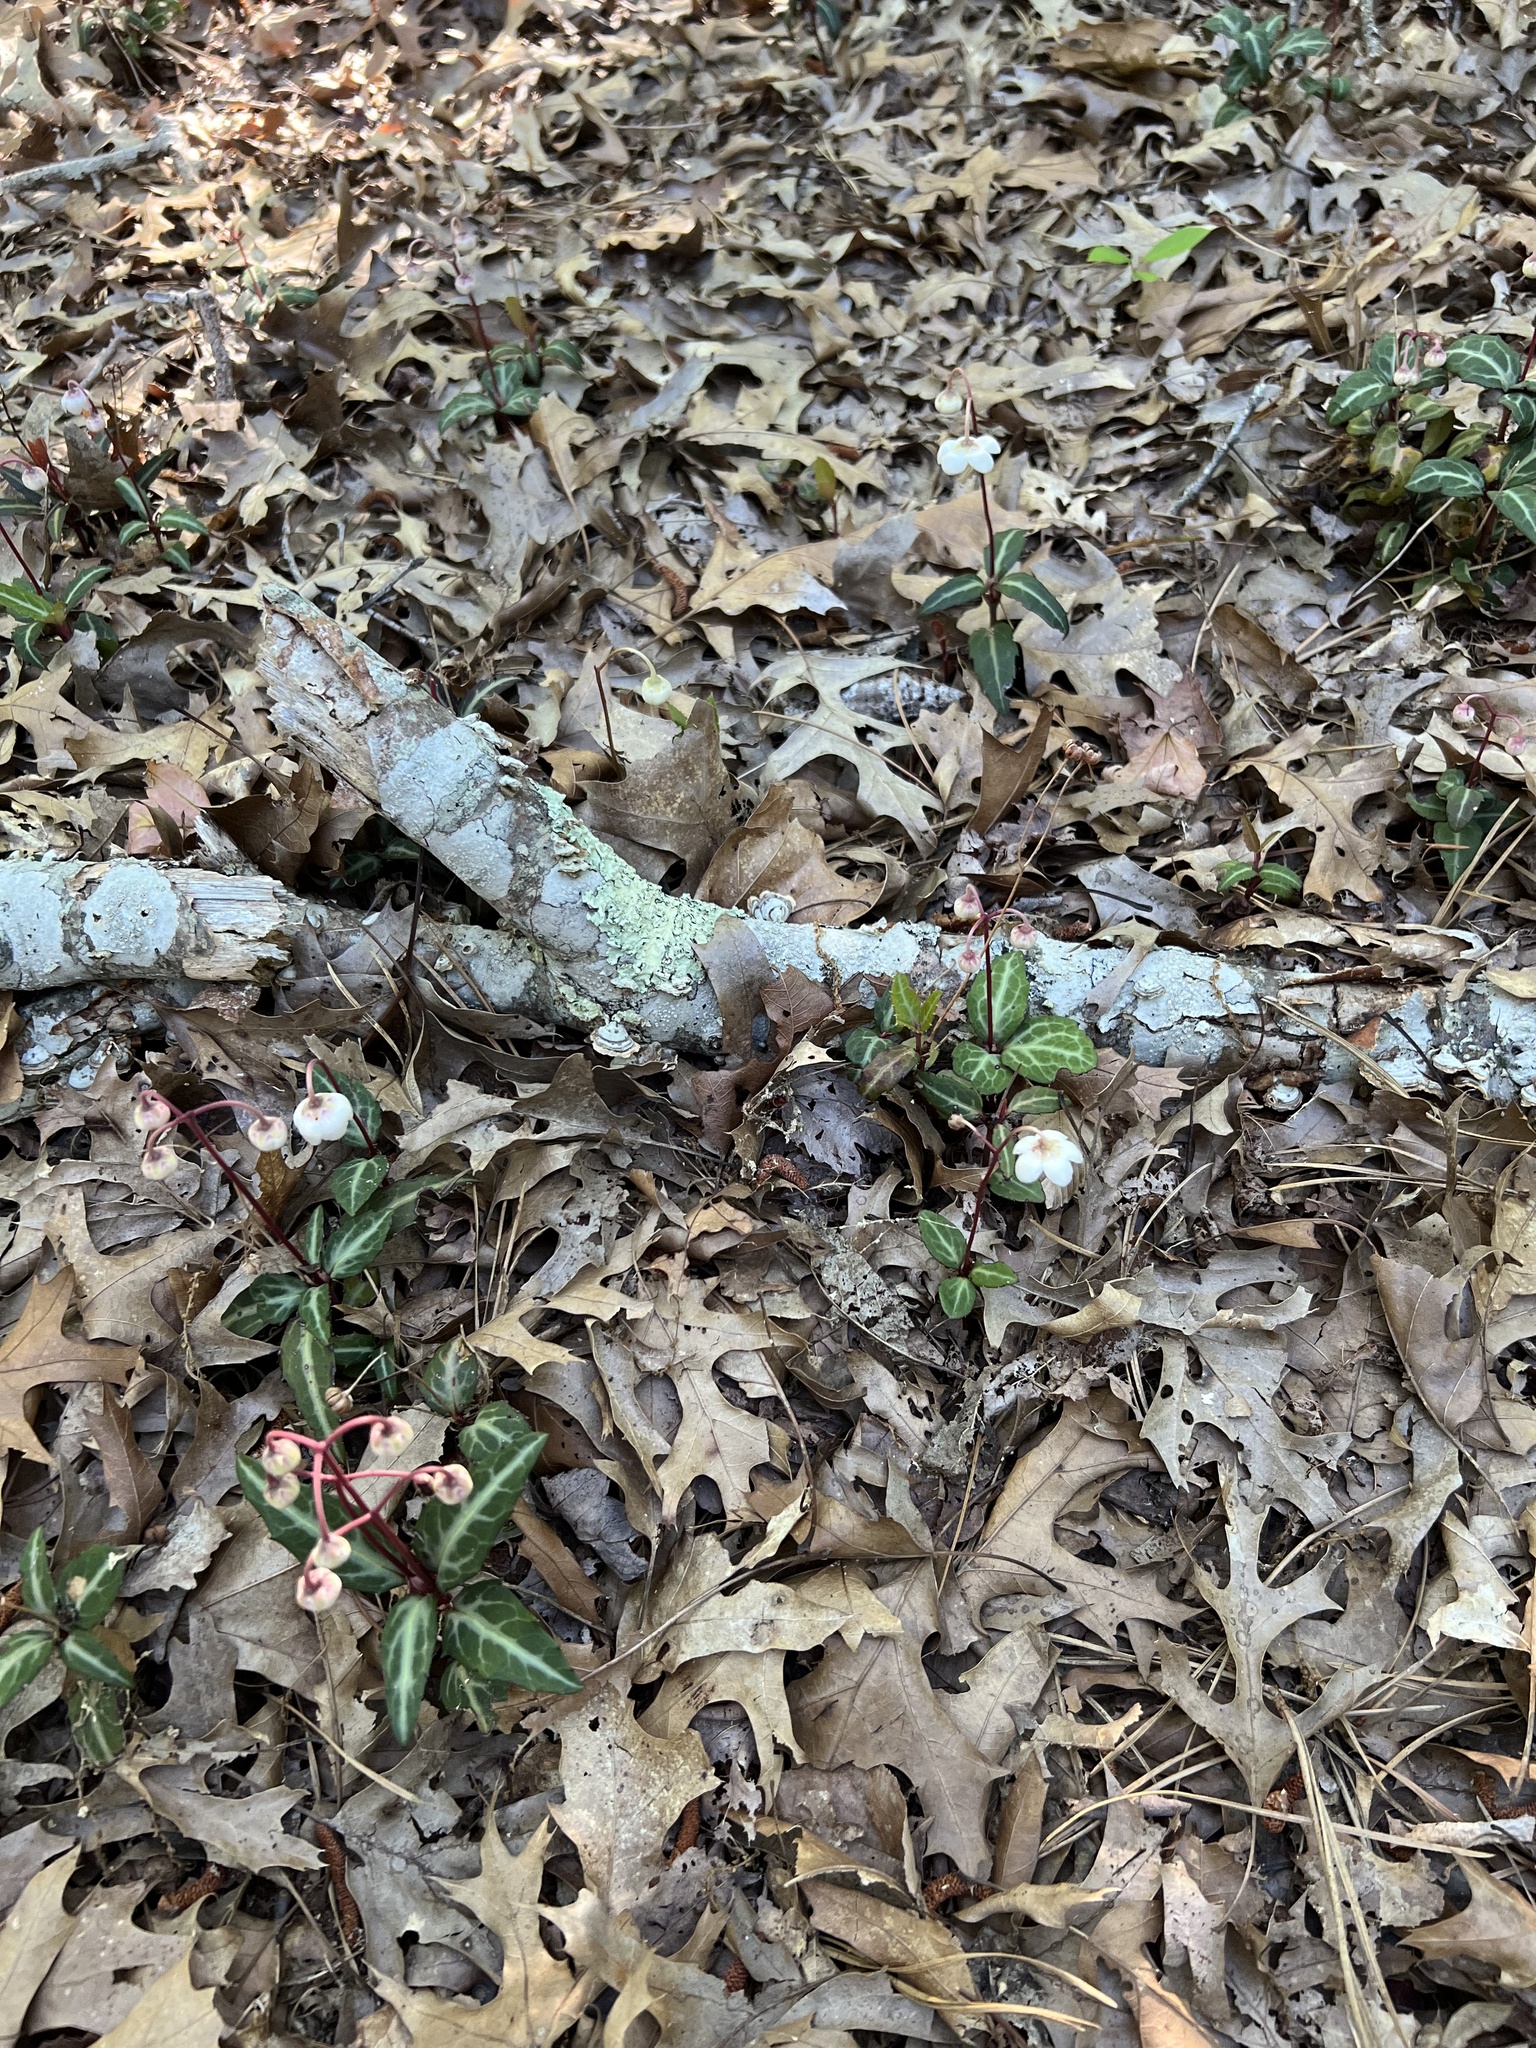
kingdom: Plantae
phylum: Tracheophyta
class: Magnoliopsida
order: Ericales
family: Ericaceae
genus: Chimaphila
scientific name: Chimaphila maculata
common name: Spotted pipsissewa
